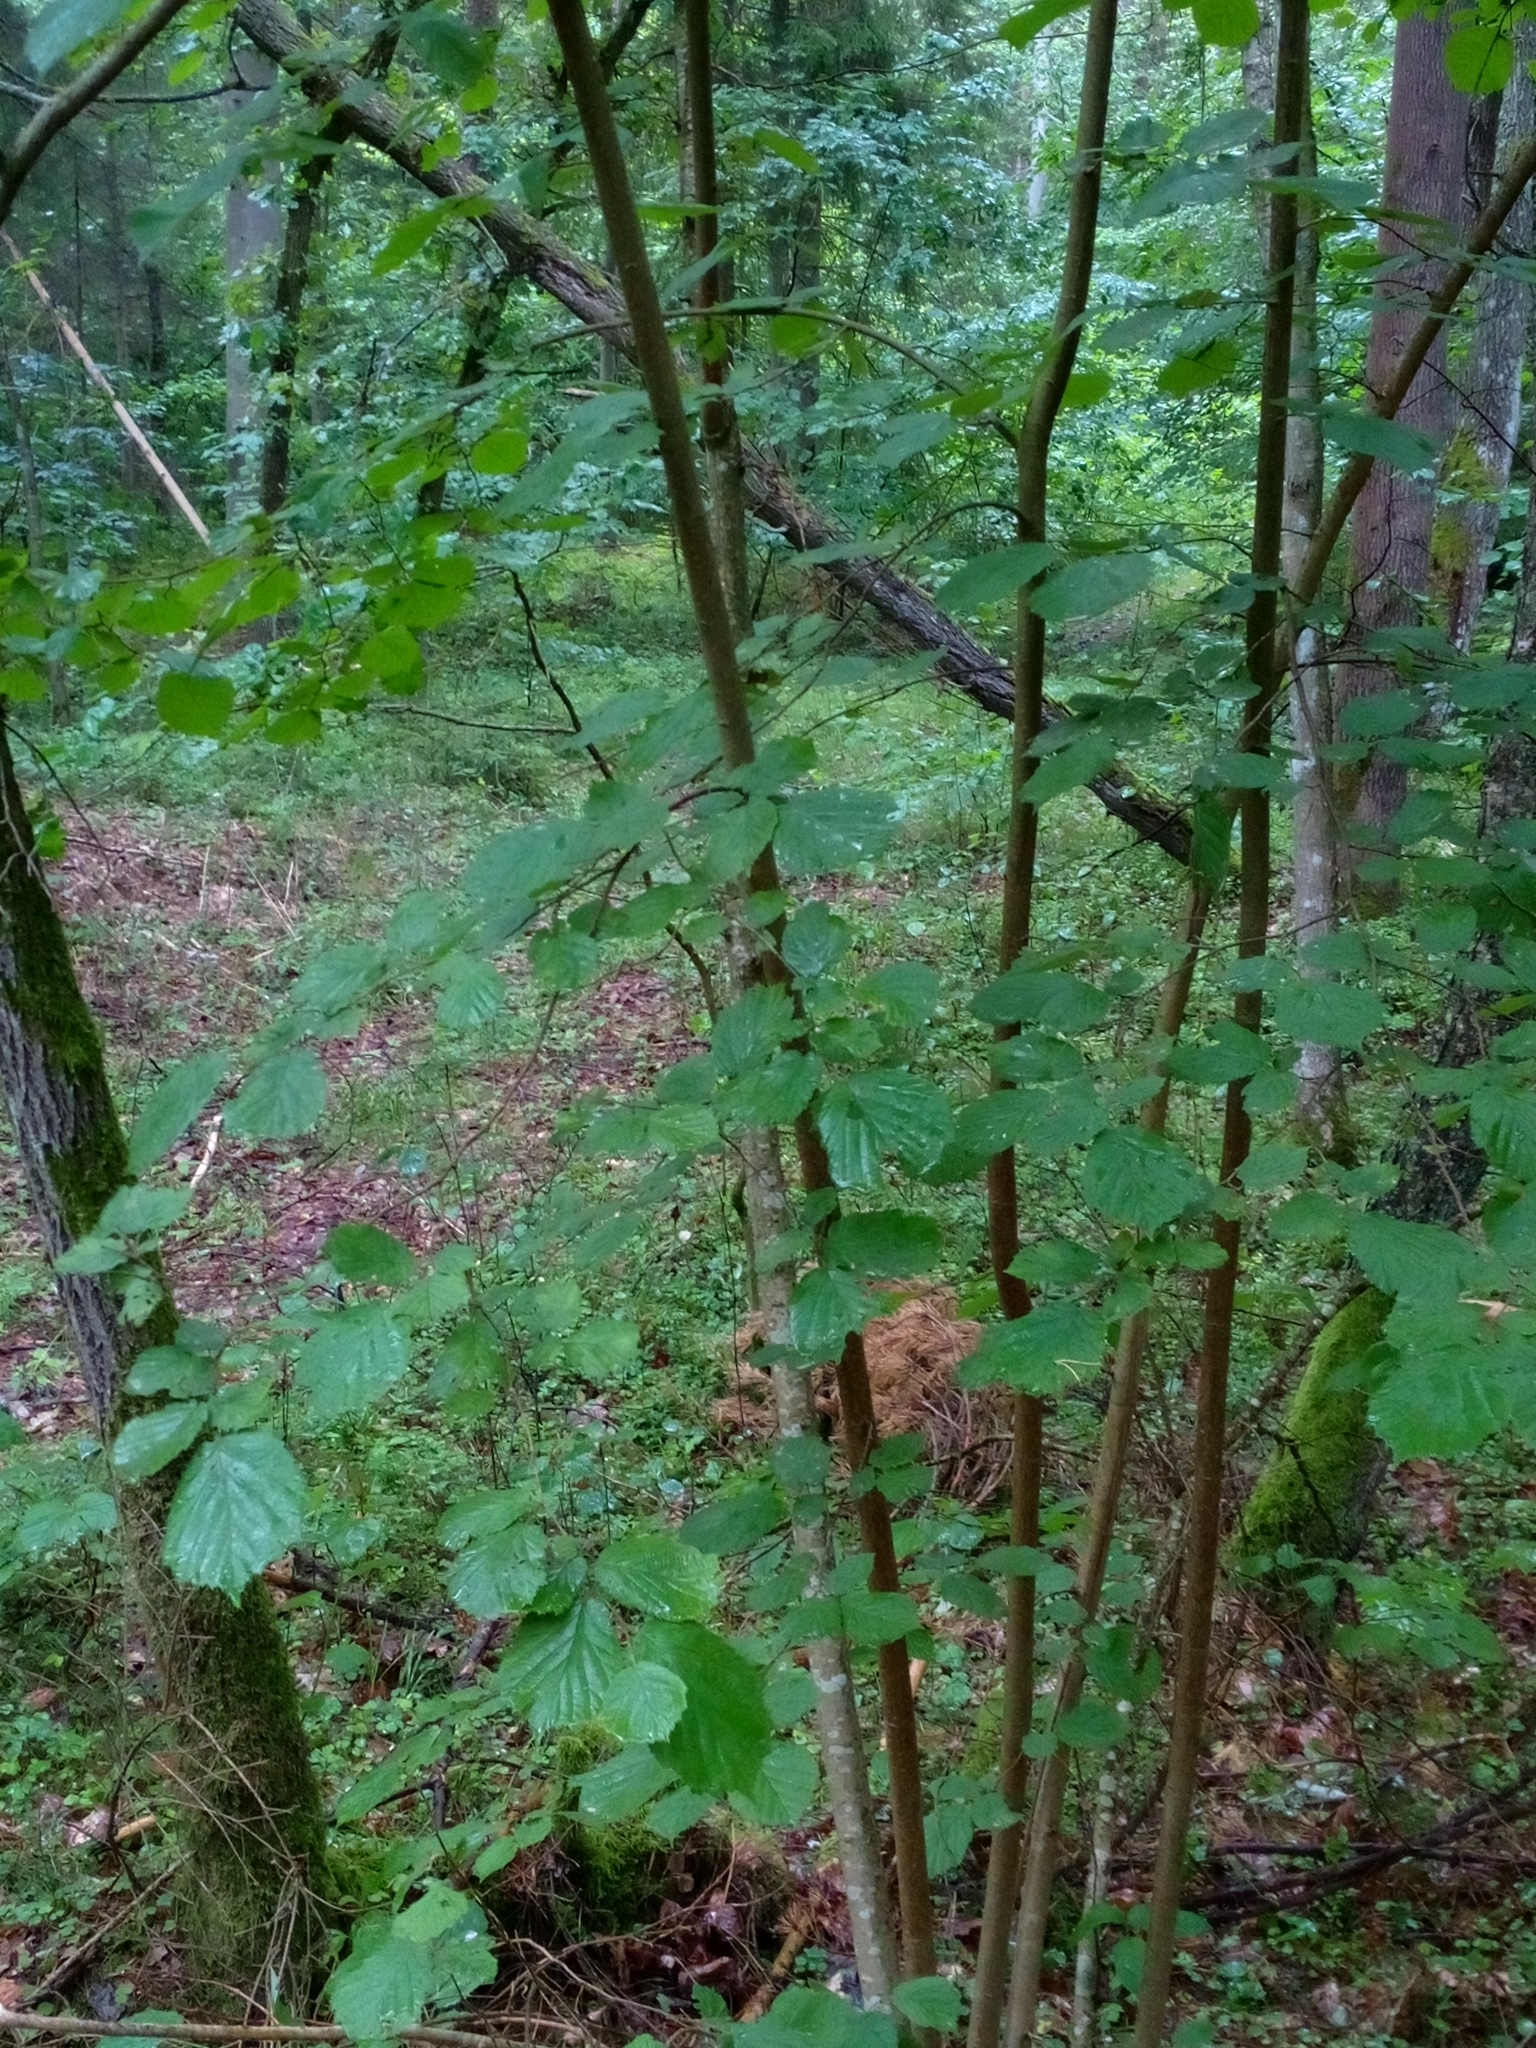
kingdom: Plantae
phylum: Tracheophyta
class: Magnoliopsida
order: Fagales
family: Betulaceae
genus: Corylus
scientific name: Corylus avellana
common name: European hazel
